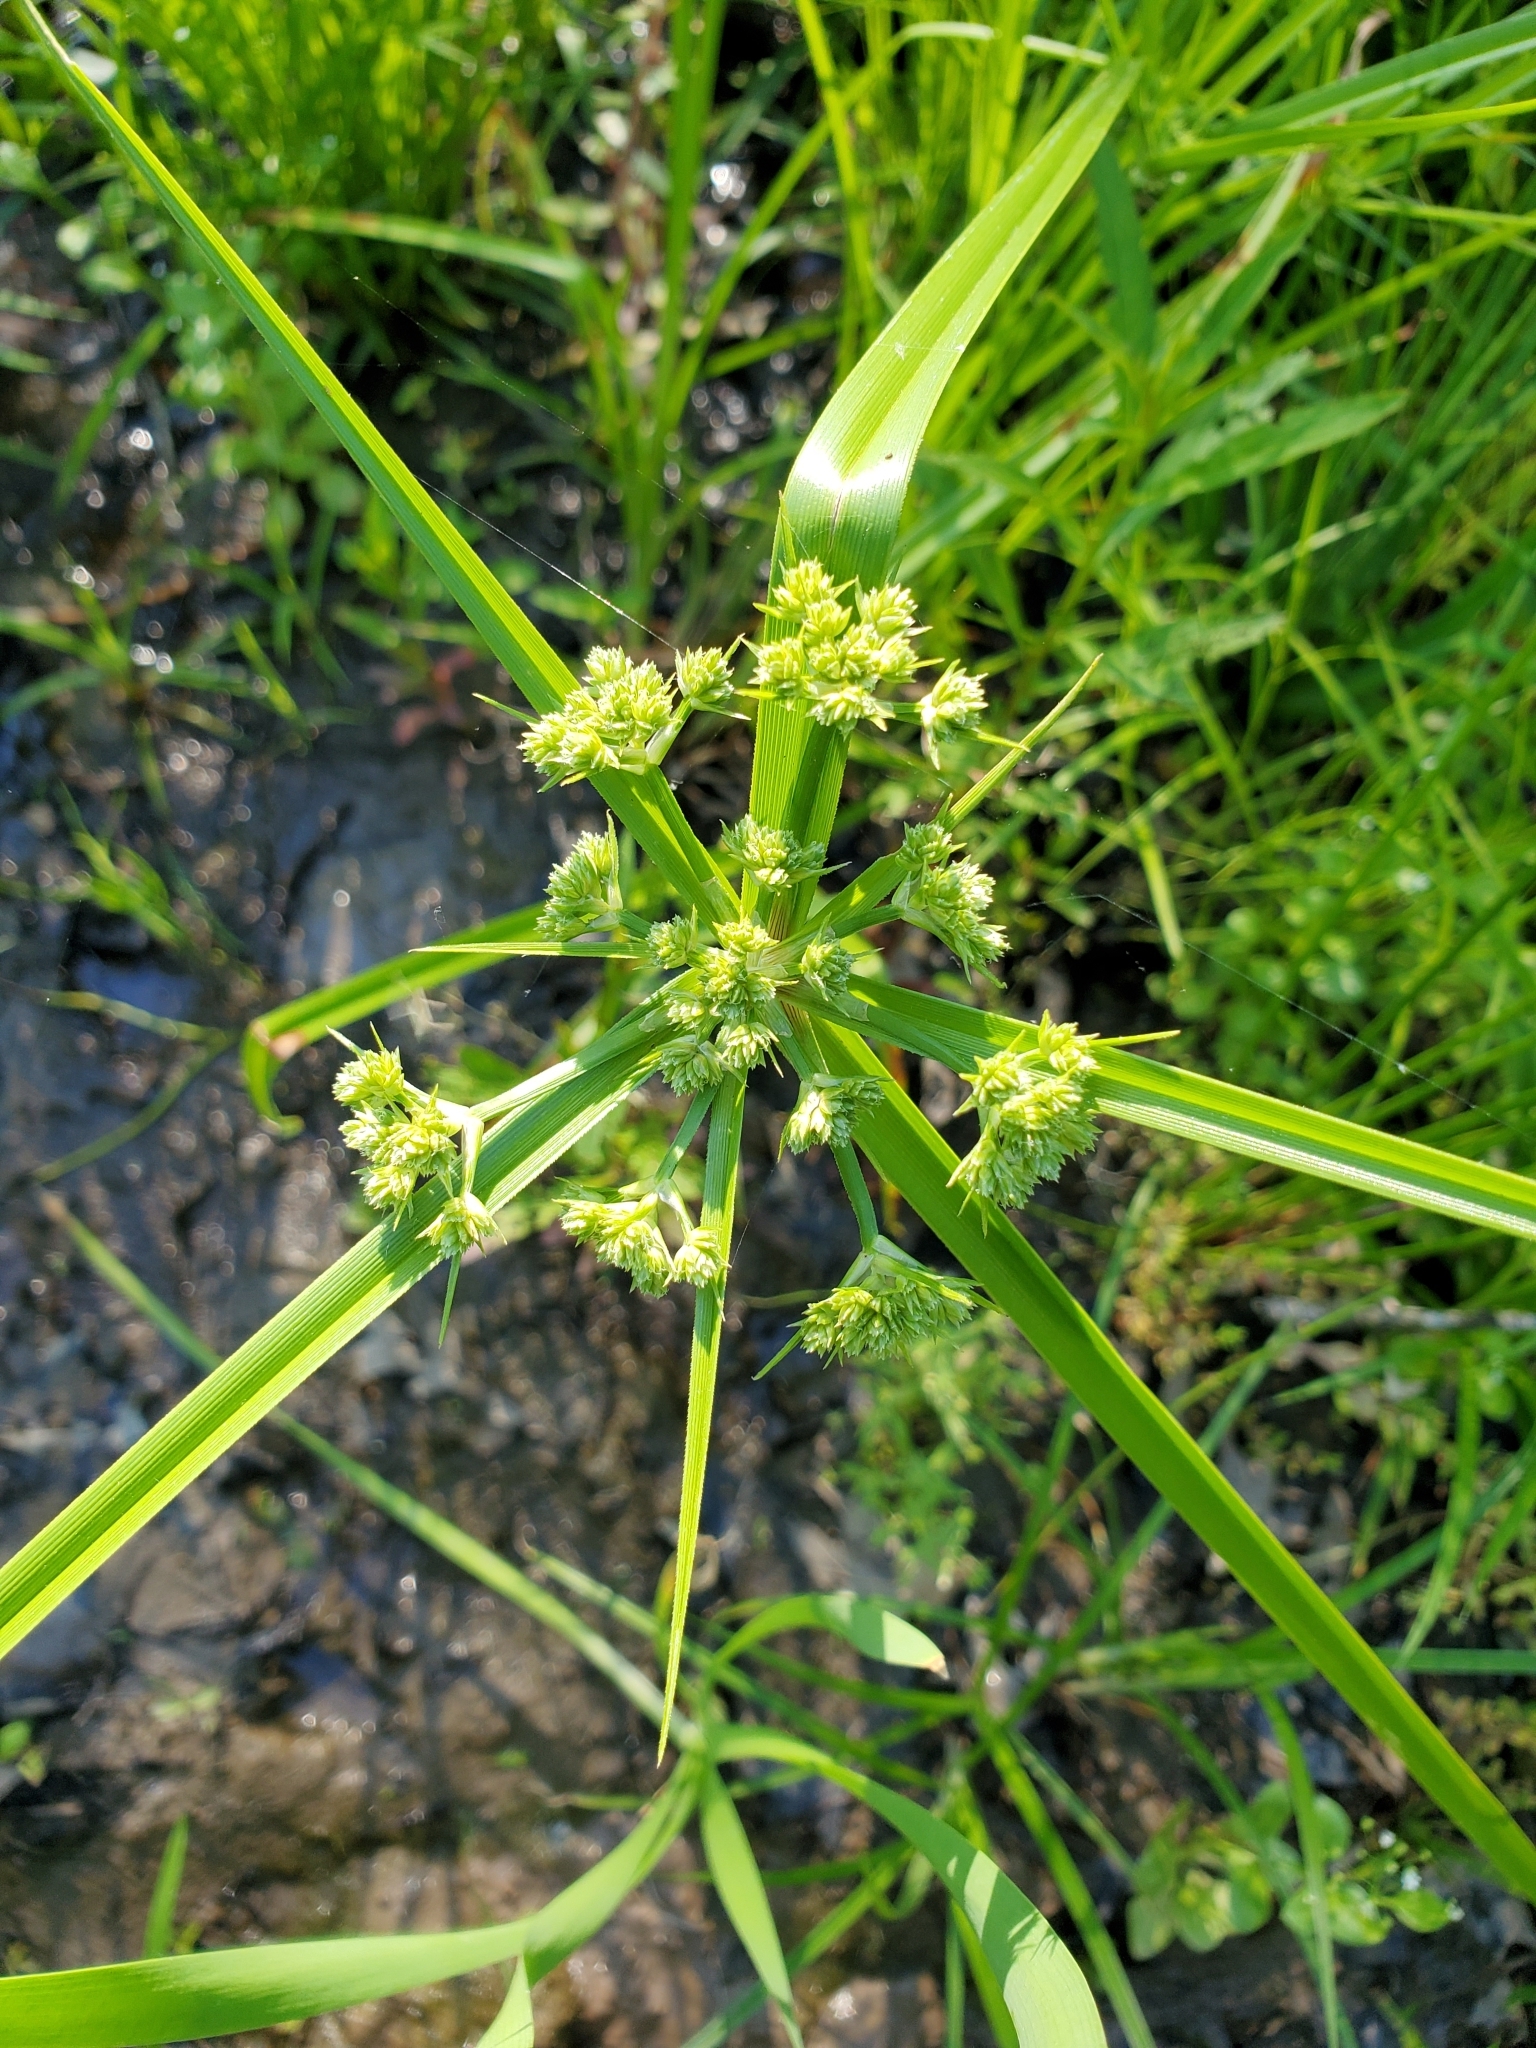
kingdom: Plantae
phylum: Tracheophyta
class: Liliopsida
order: Poales
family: Cyperaceae
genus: Cyperus
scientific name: Cyperus virens
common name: Green flatsedge
